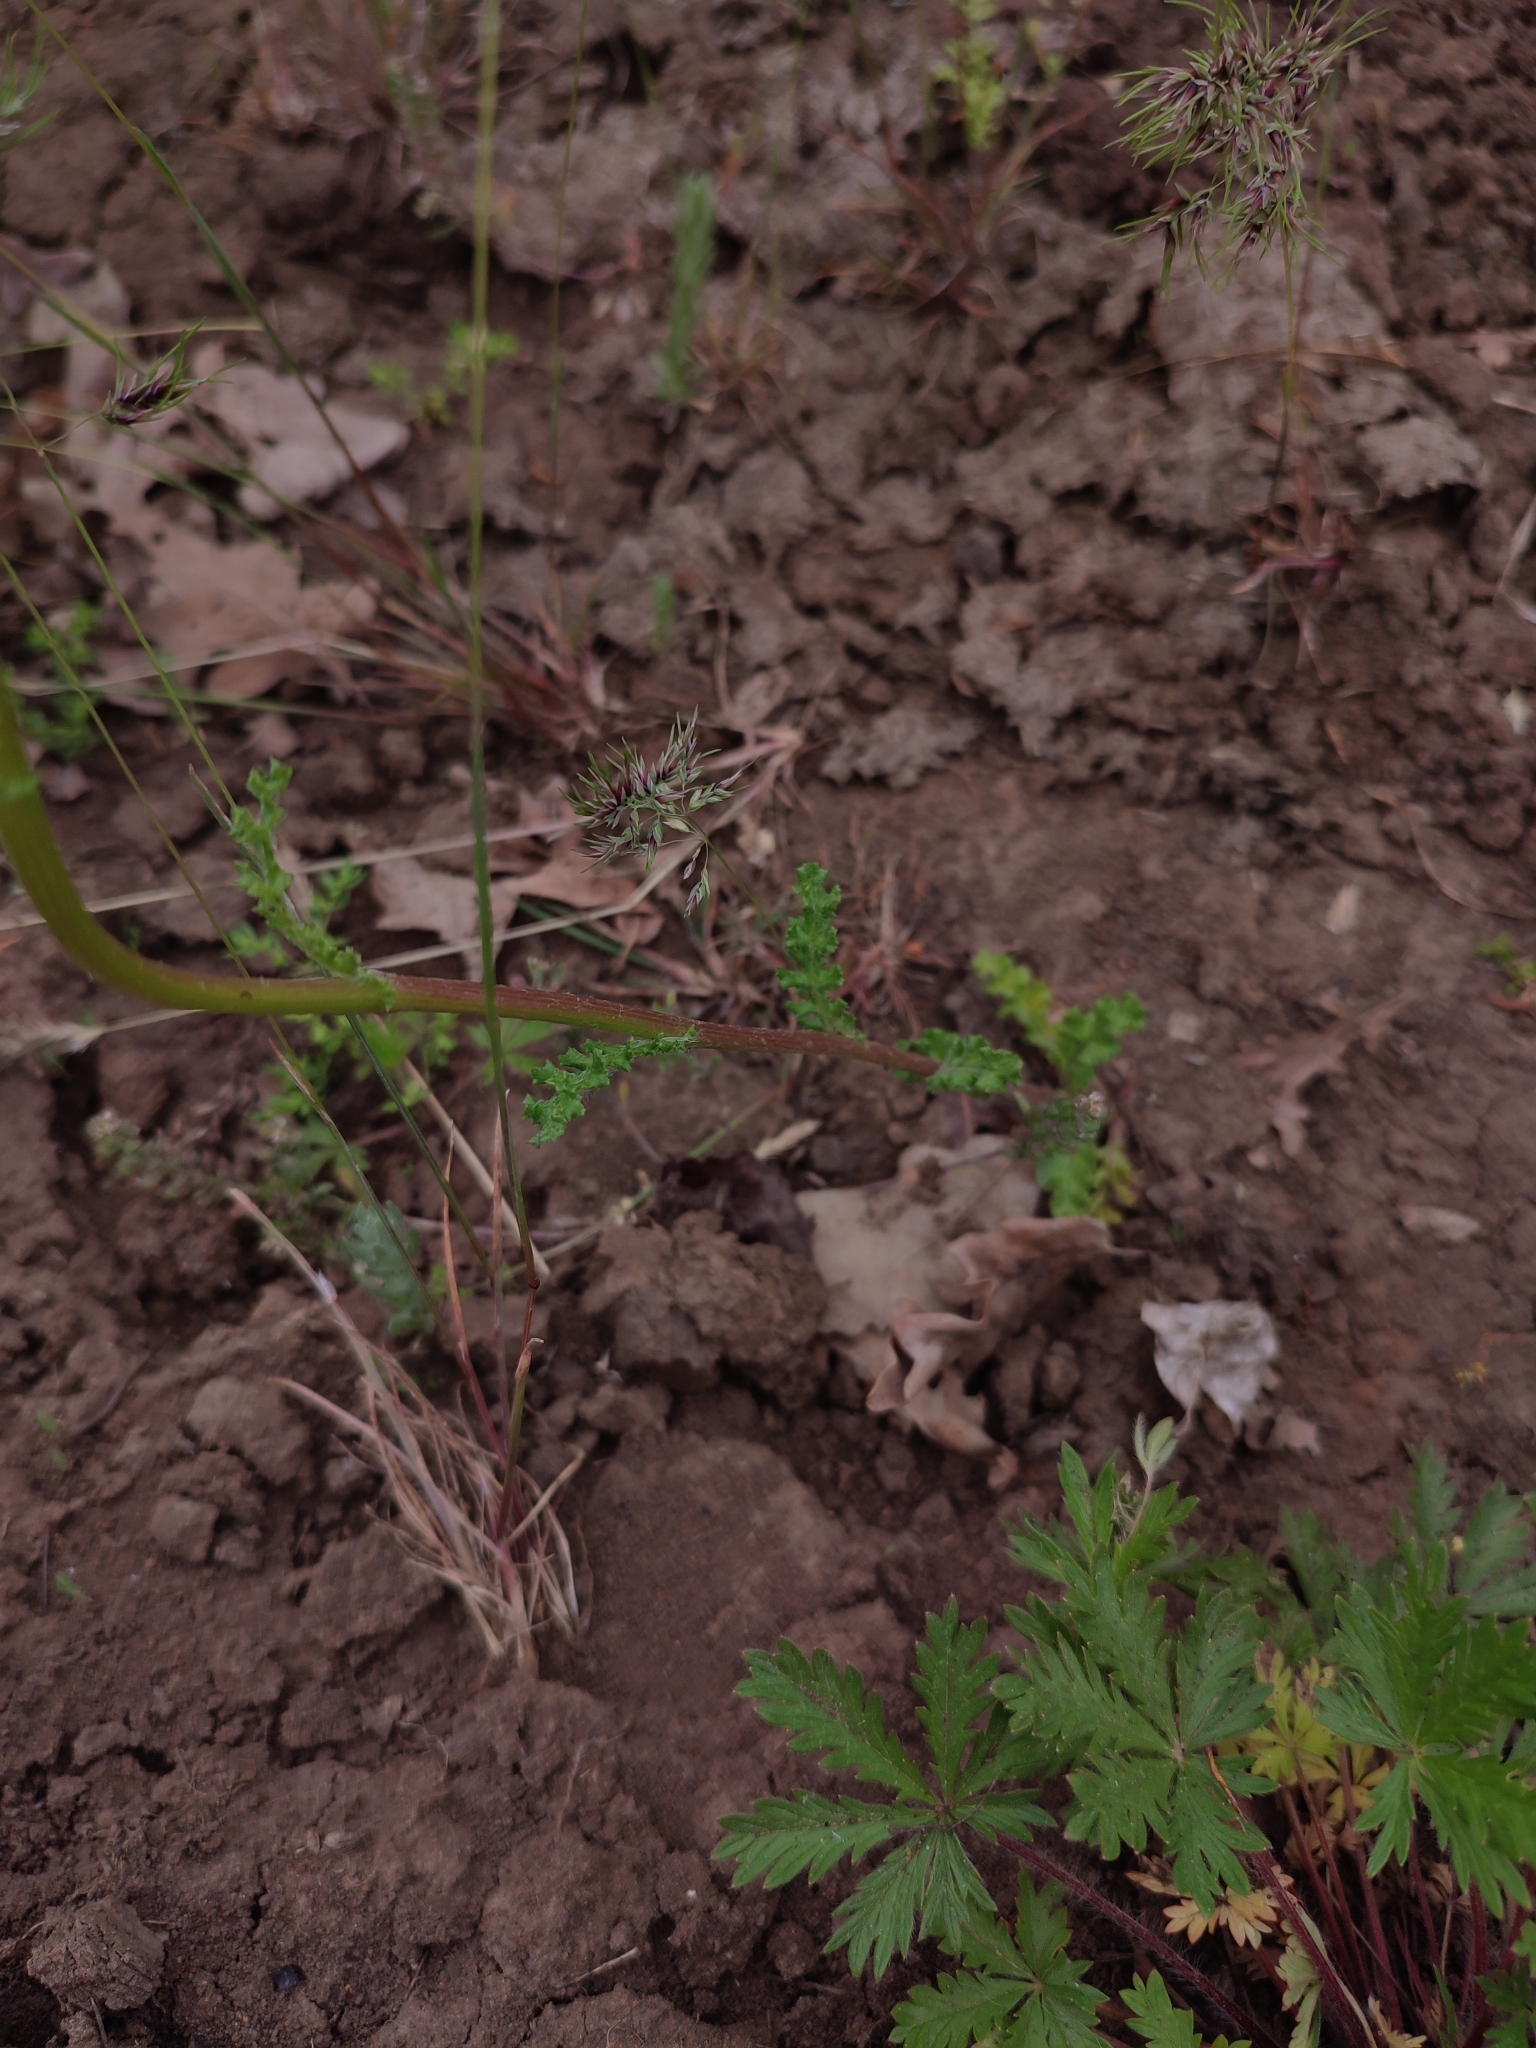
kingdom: Plantae
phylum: Tracheophyta
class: Magnoliopsida
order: Asterales
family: Asteraceae
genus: Senecio
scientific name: Senecio vernalis
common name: Eastern groundsel
